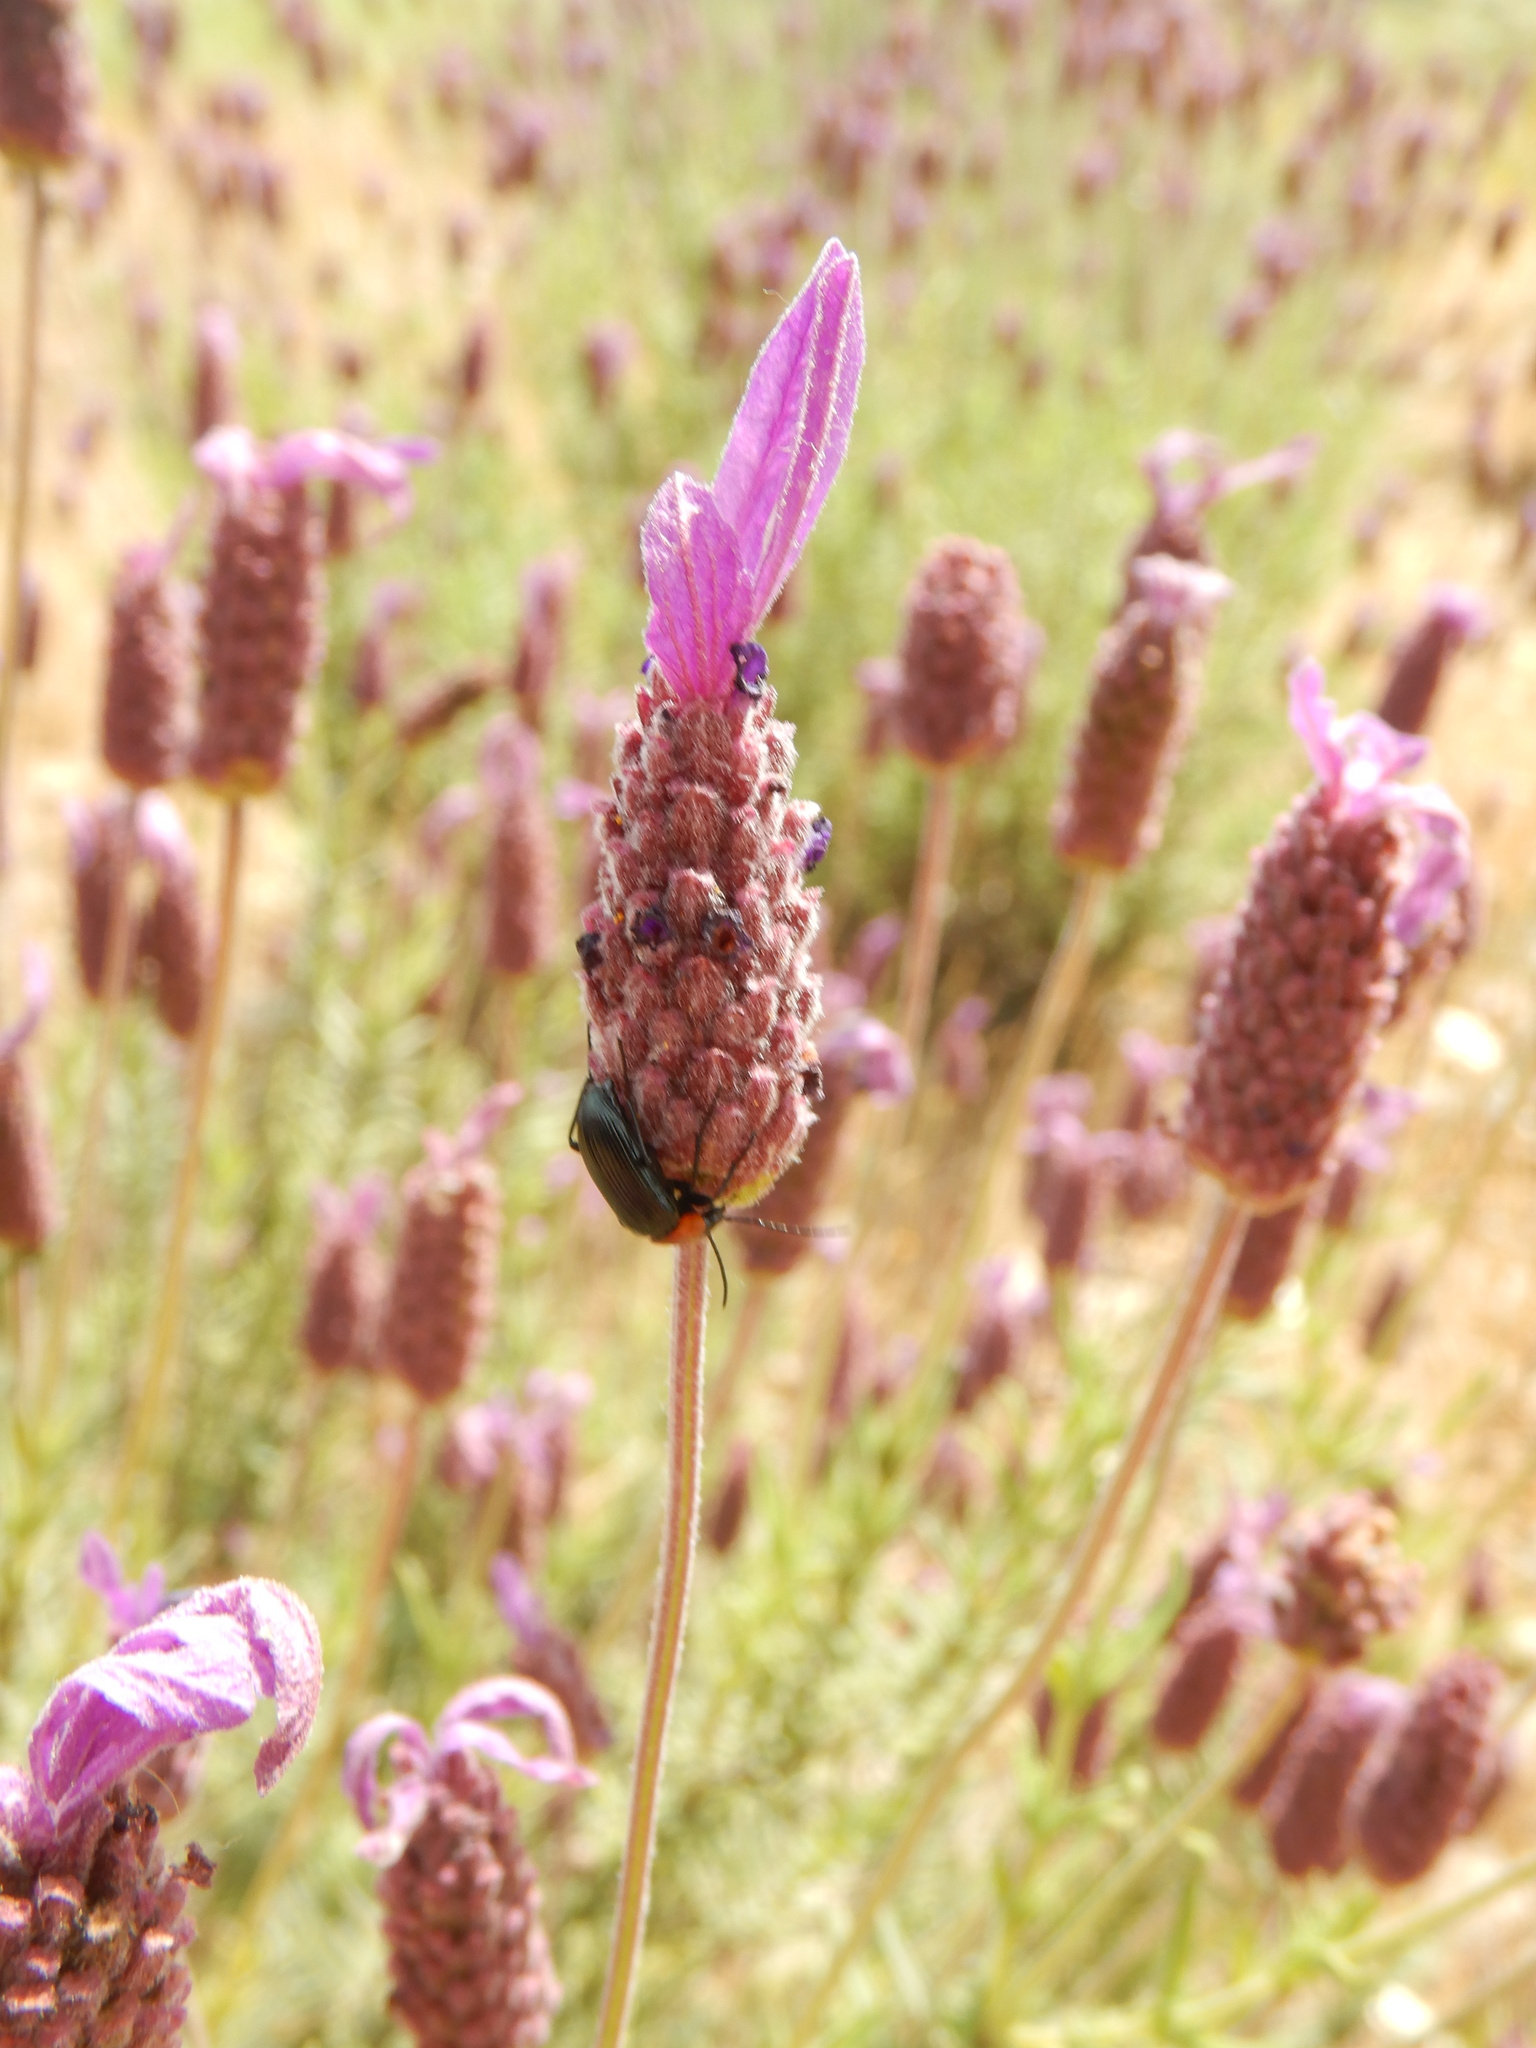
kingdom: Animalia
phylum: Arthropoda
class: Insecta
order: Coleoptera
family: Tenebrionidae
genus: Heliotaurus
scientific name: Heliotaurus ruficollis
